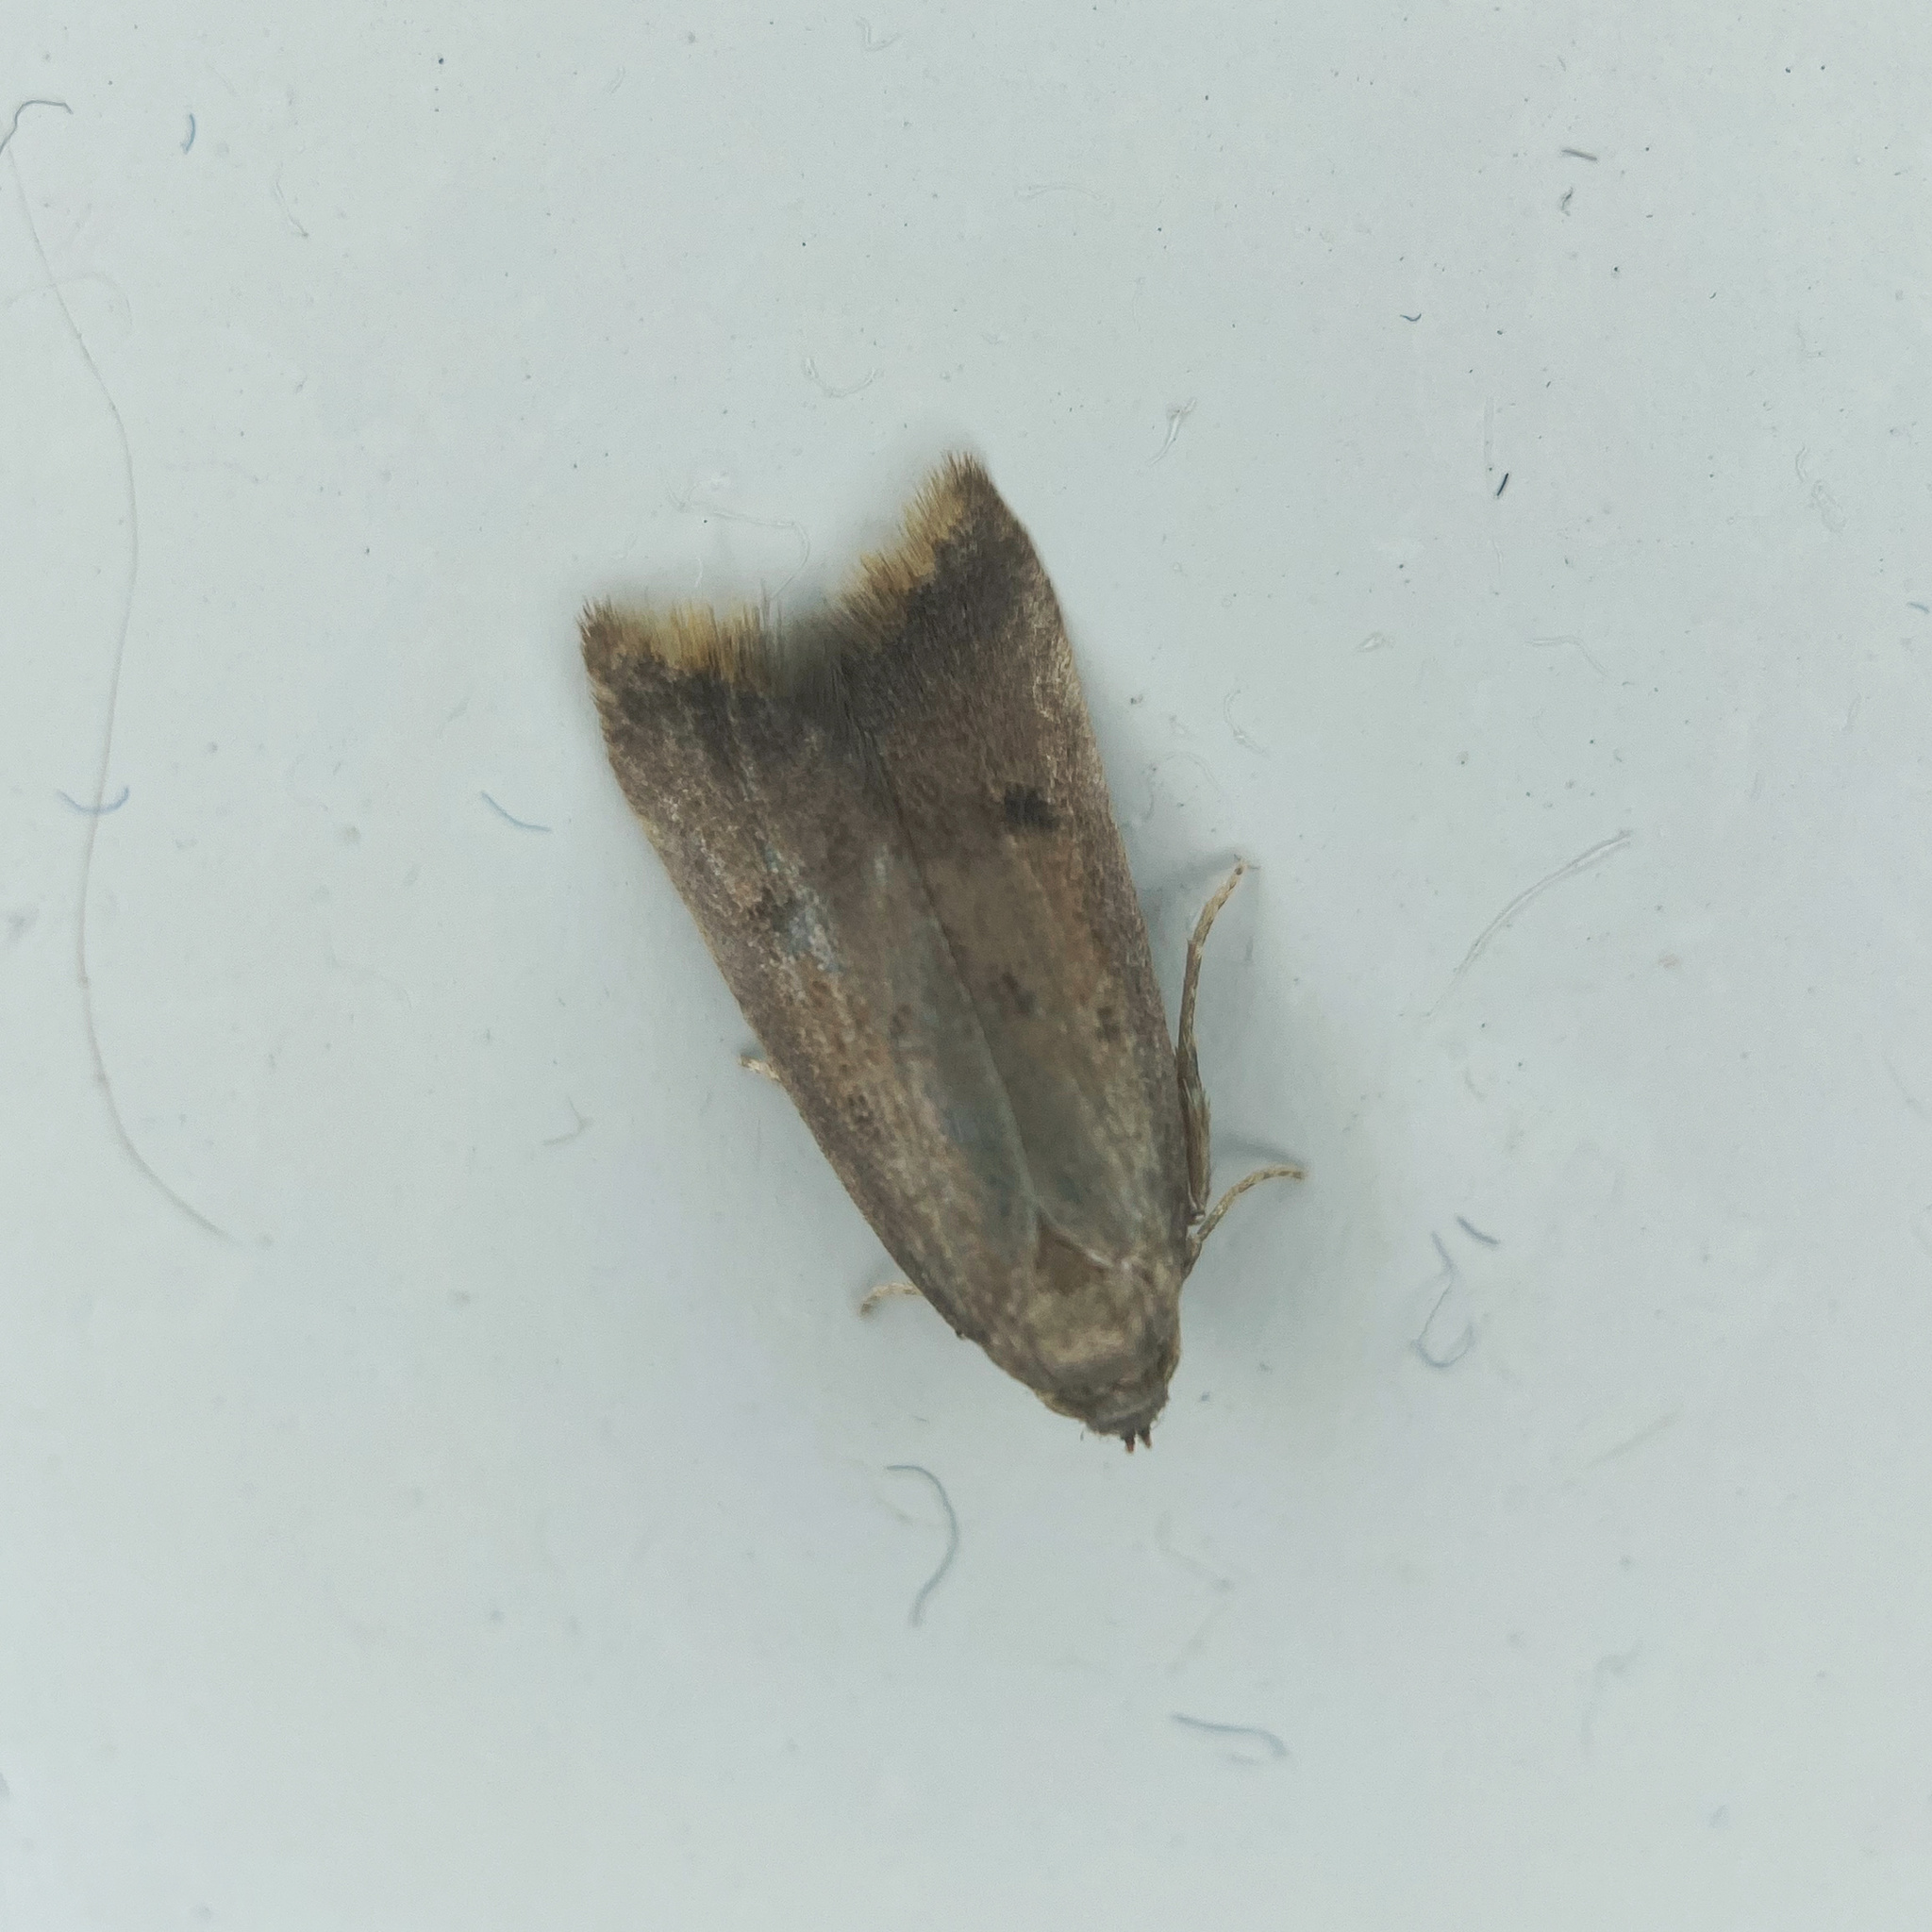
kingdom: Animalia
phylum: Arthropoda
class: Insecta
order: Lepidoptera
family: Oecophoridae
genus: Tachystola
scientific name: Tachystola acroxantha
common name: Ruddy streak
